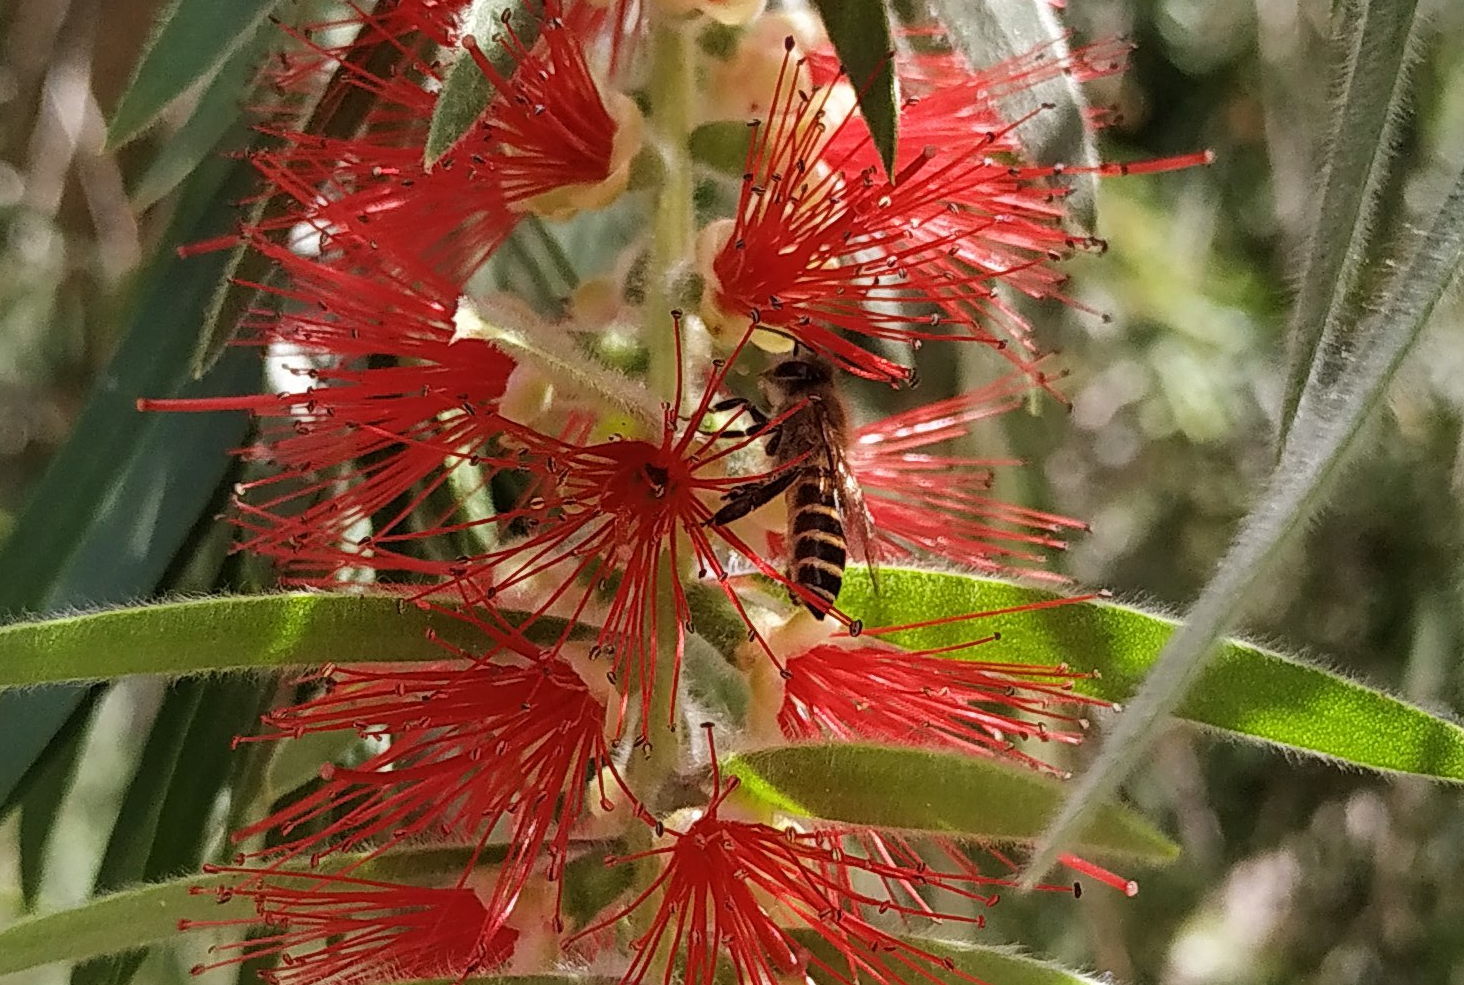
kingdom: Animalia
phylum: Arthropoda
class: Insecta
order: Hymenoptera
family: Apidae
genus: Apis
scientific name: Apis cerana
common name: Honey bee
